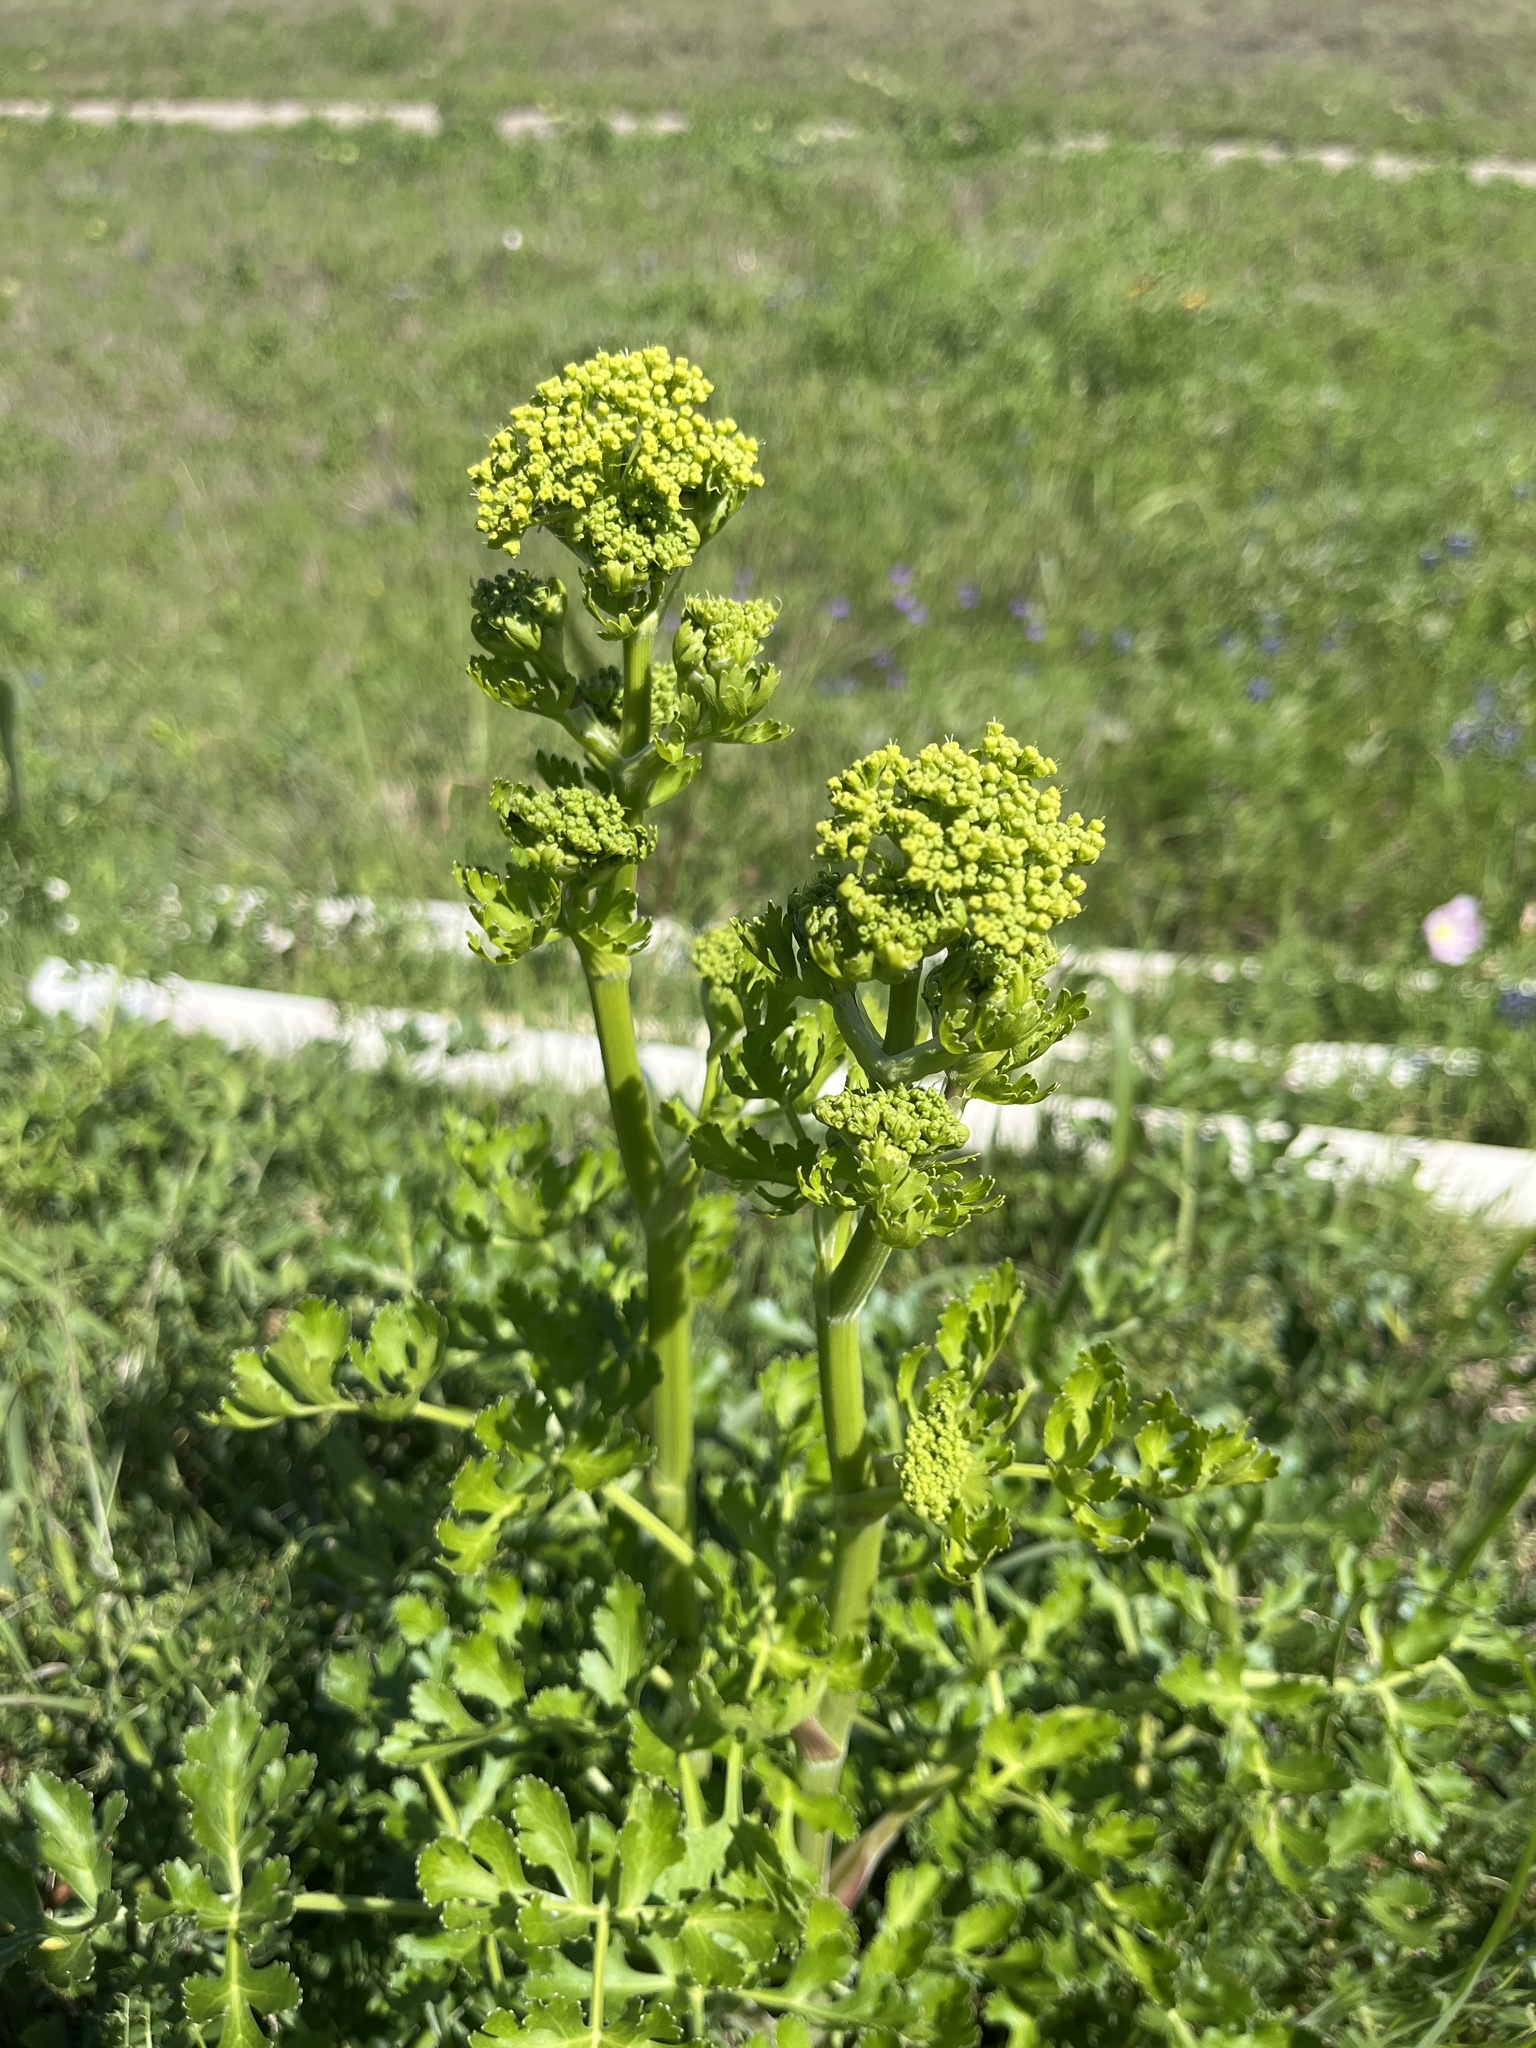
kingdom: Plantae
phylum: Tracheophyta
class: Magnoliopsida
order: Apiales
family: Apiaceae
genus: Polytaenia
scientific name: Polytaenia texana
